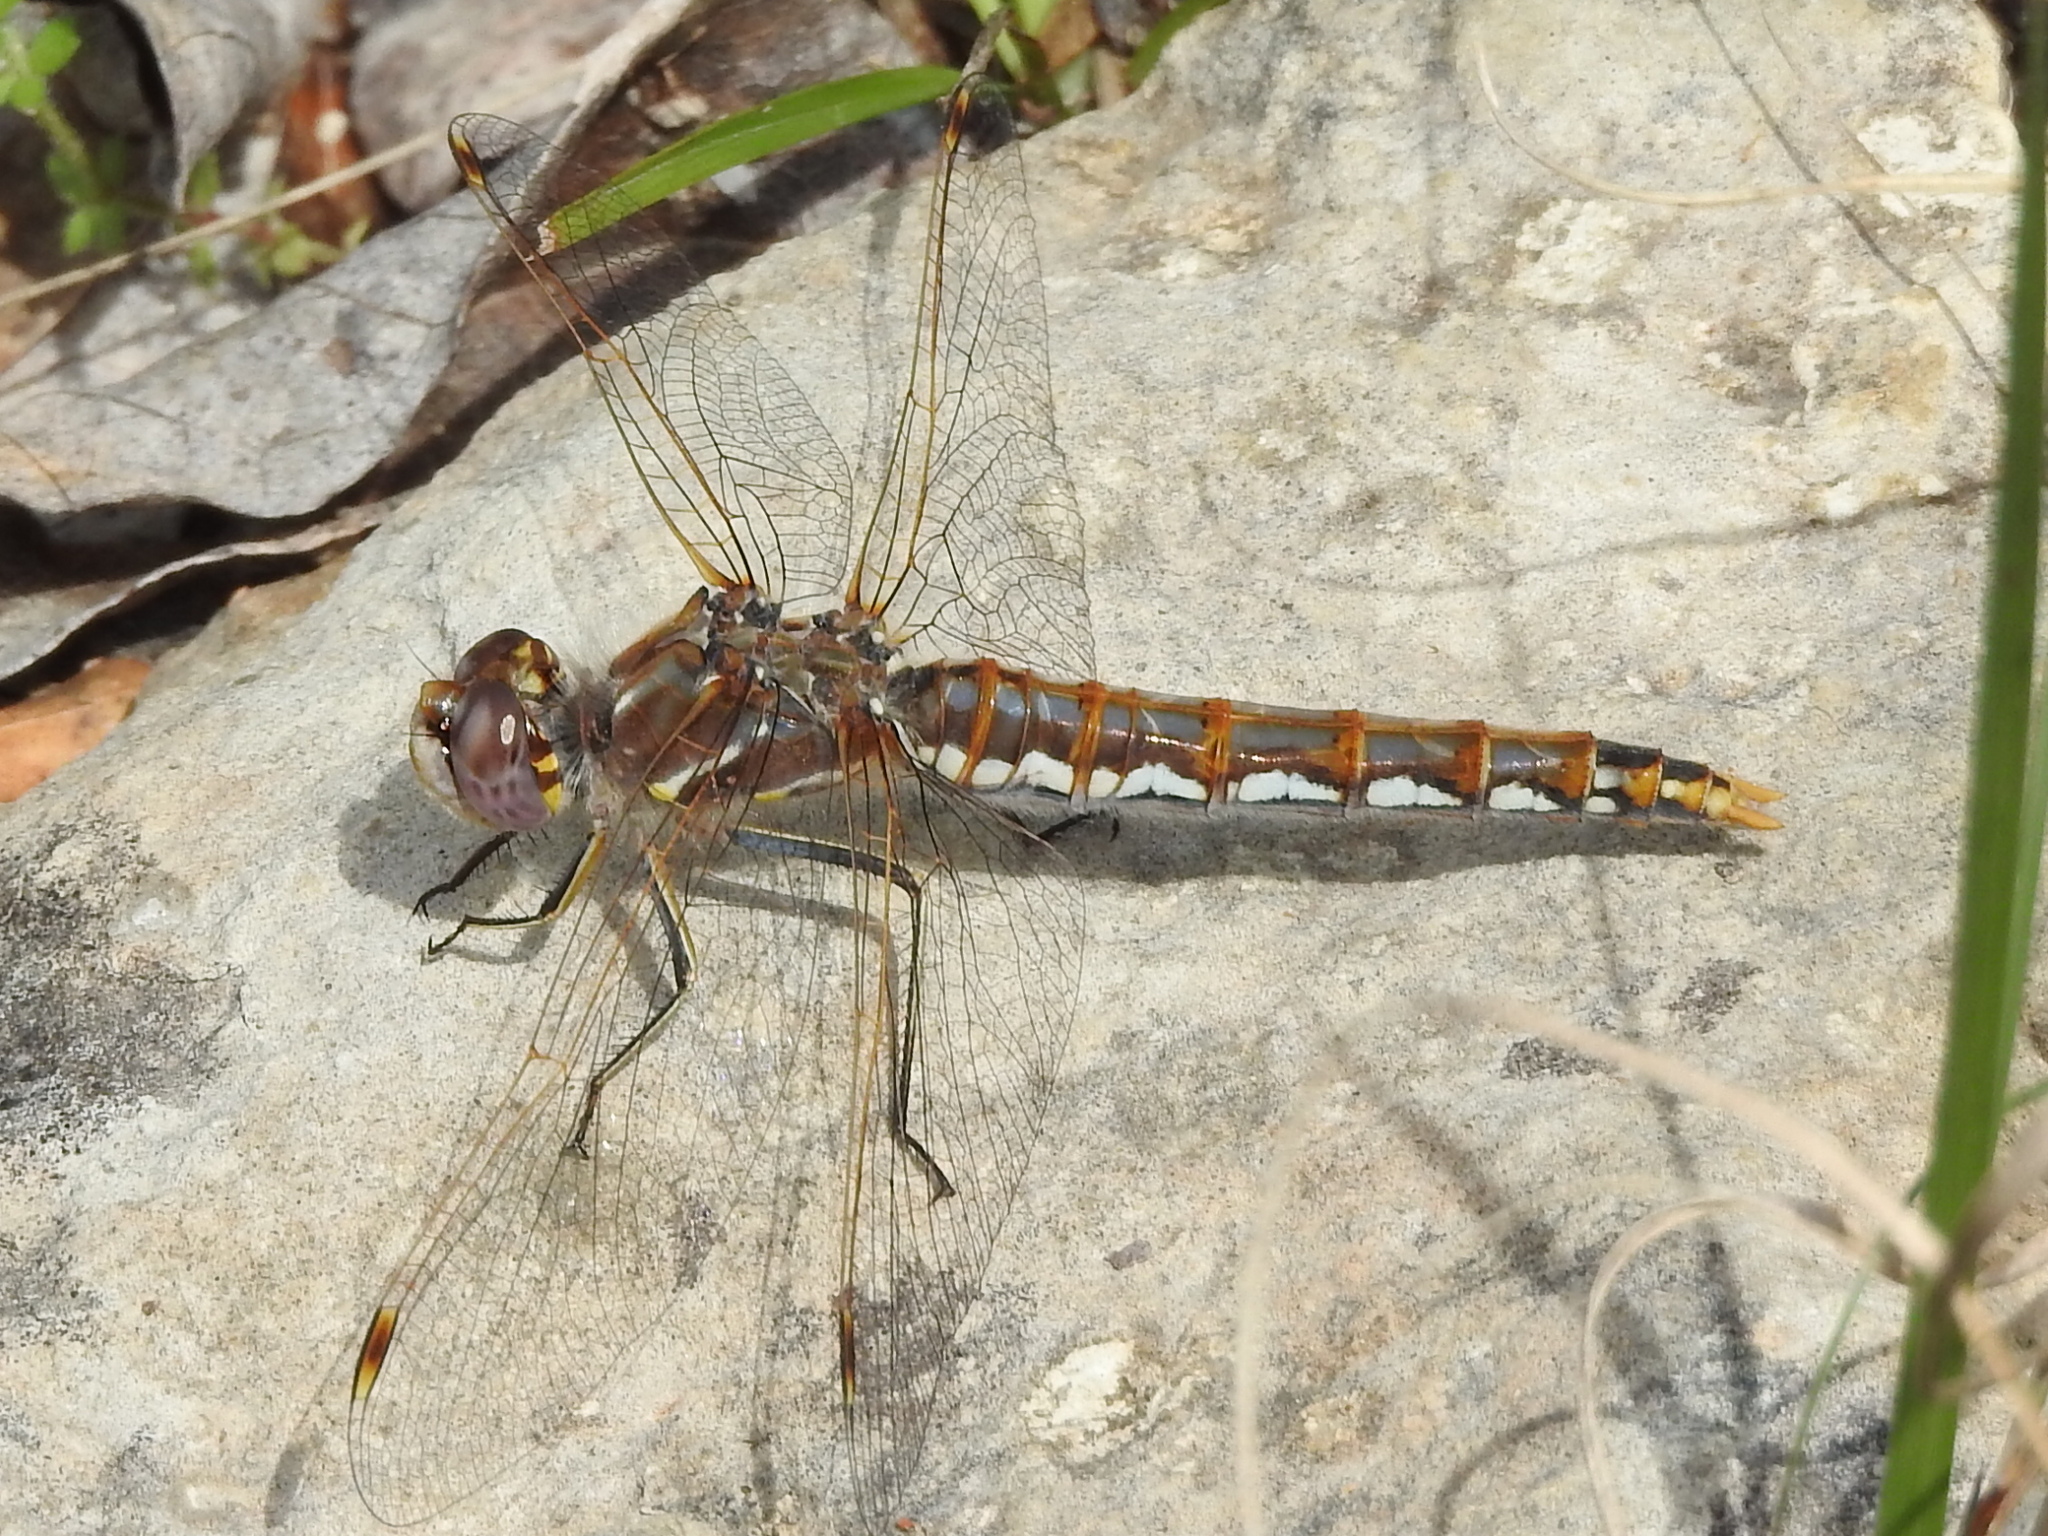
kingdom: Animalia
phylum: Arthropoda
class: Insecta
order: Odonata
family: Libellulidae
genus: Sympetrum
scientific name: Sympetrum corruptum
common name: Variegated meadowhawk
